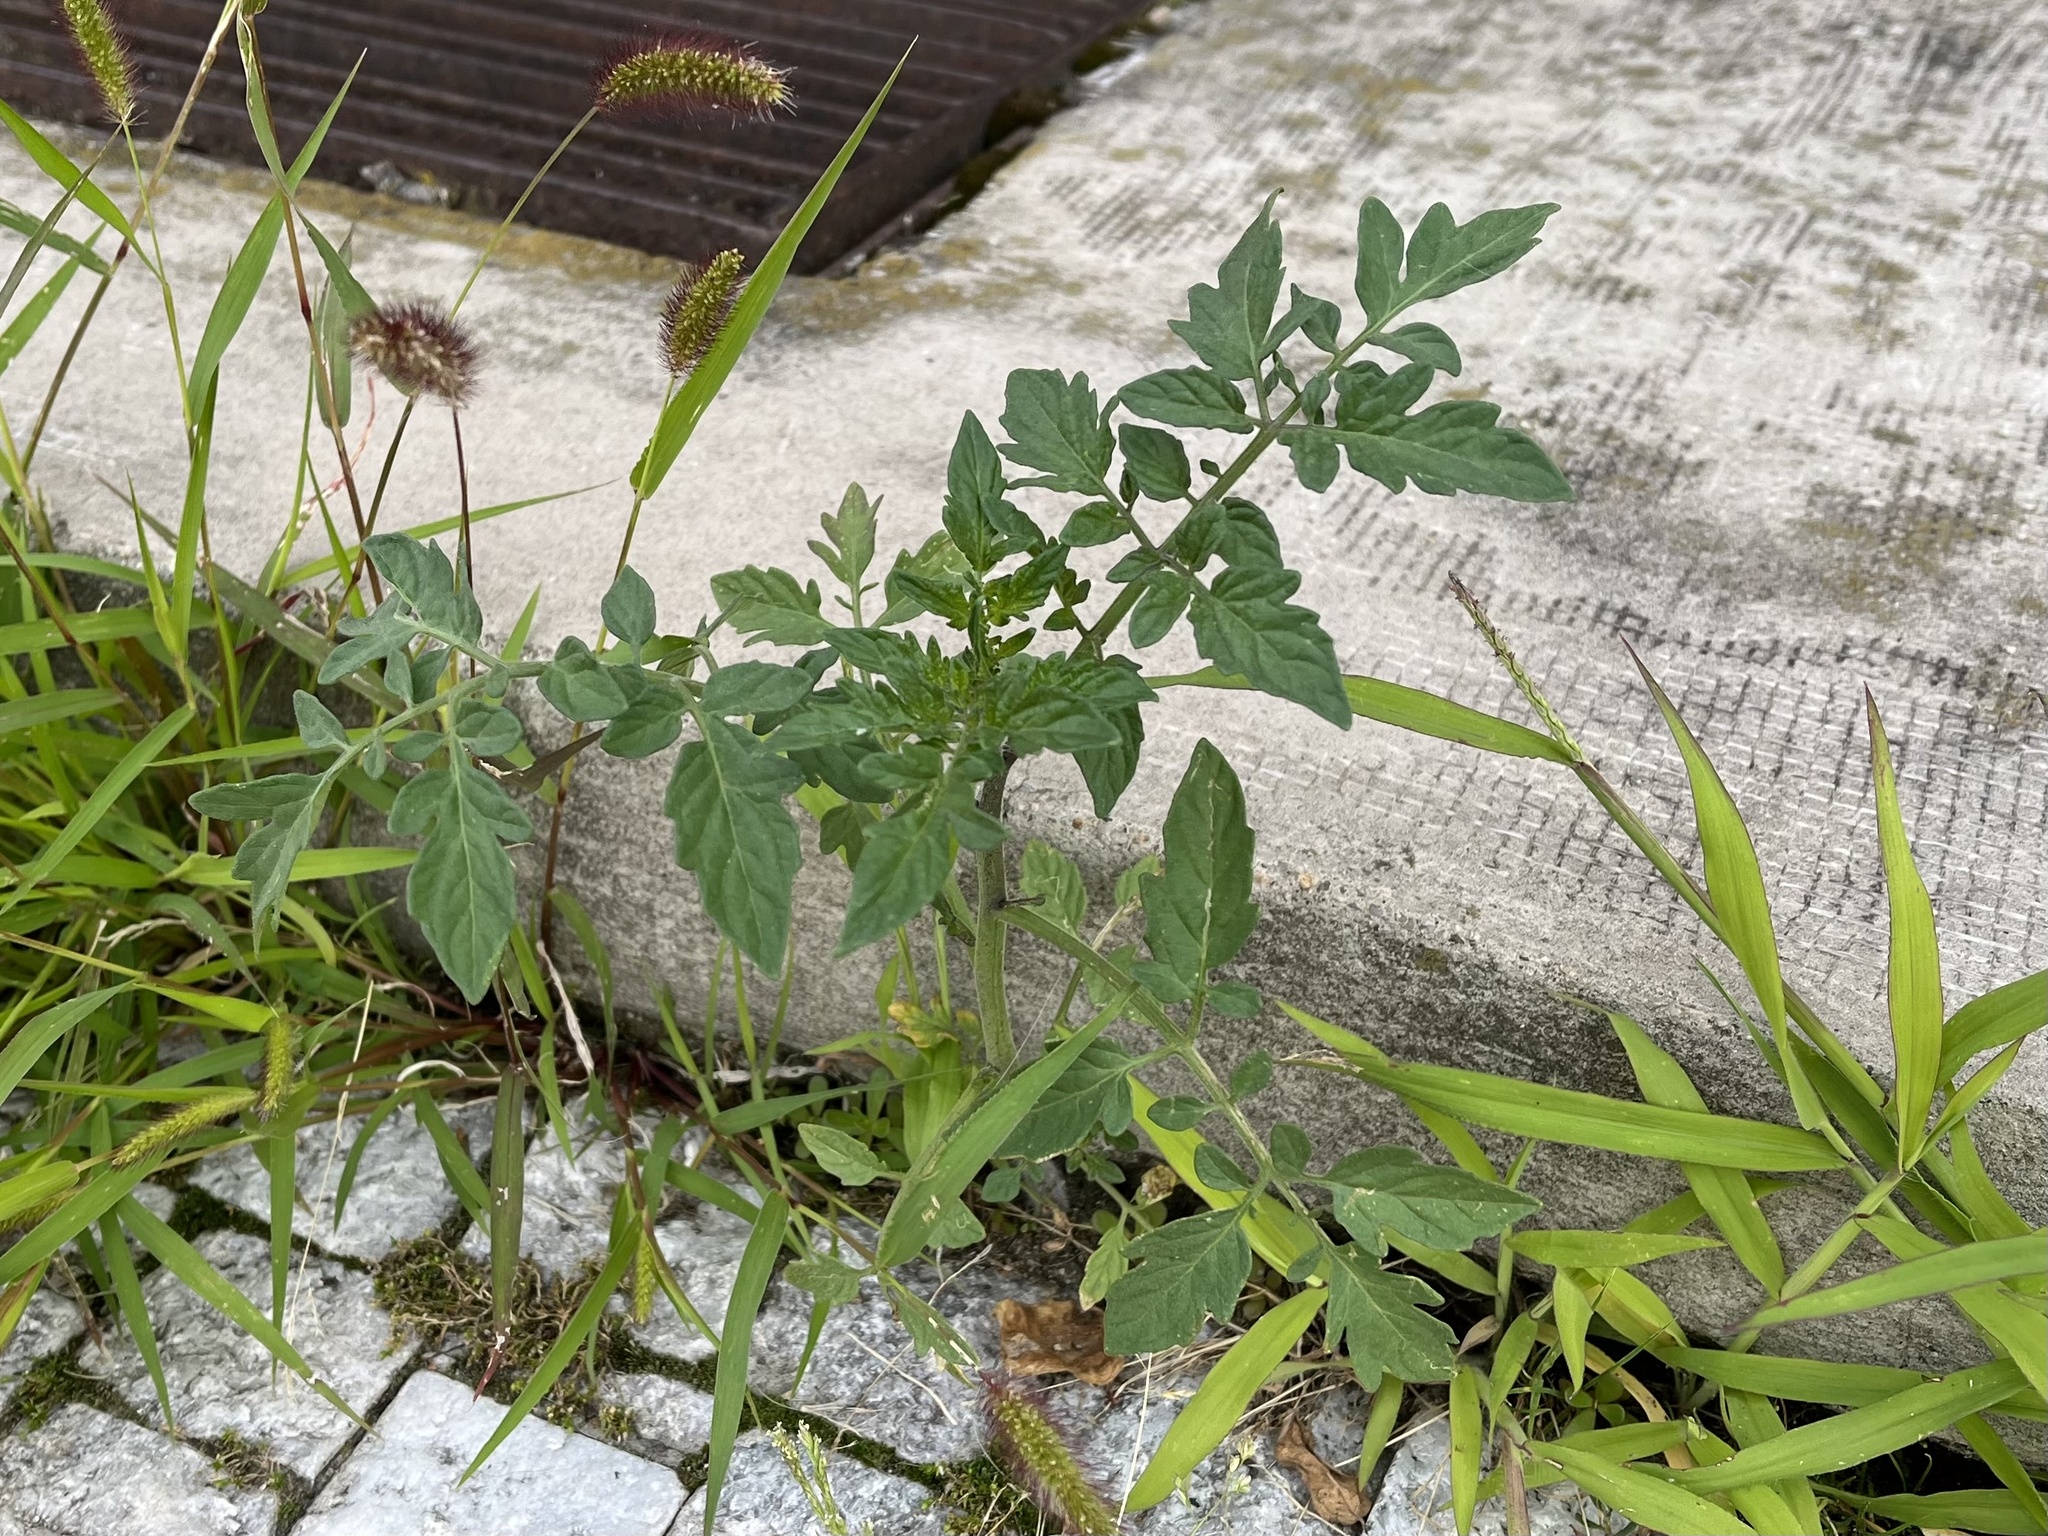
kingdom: Plantae
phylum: Tracheophyta
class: Magnoliopsida
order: Solanales
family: Solanaceae
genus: Solanum
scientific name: Solanum lycopersicum
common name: Garden tomato
